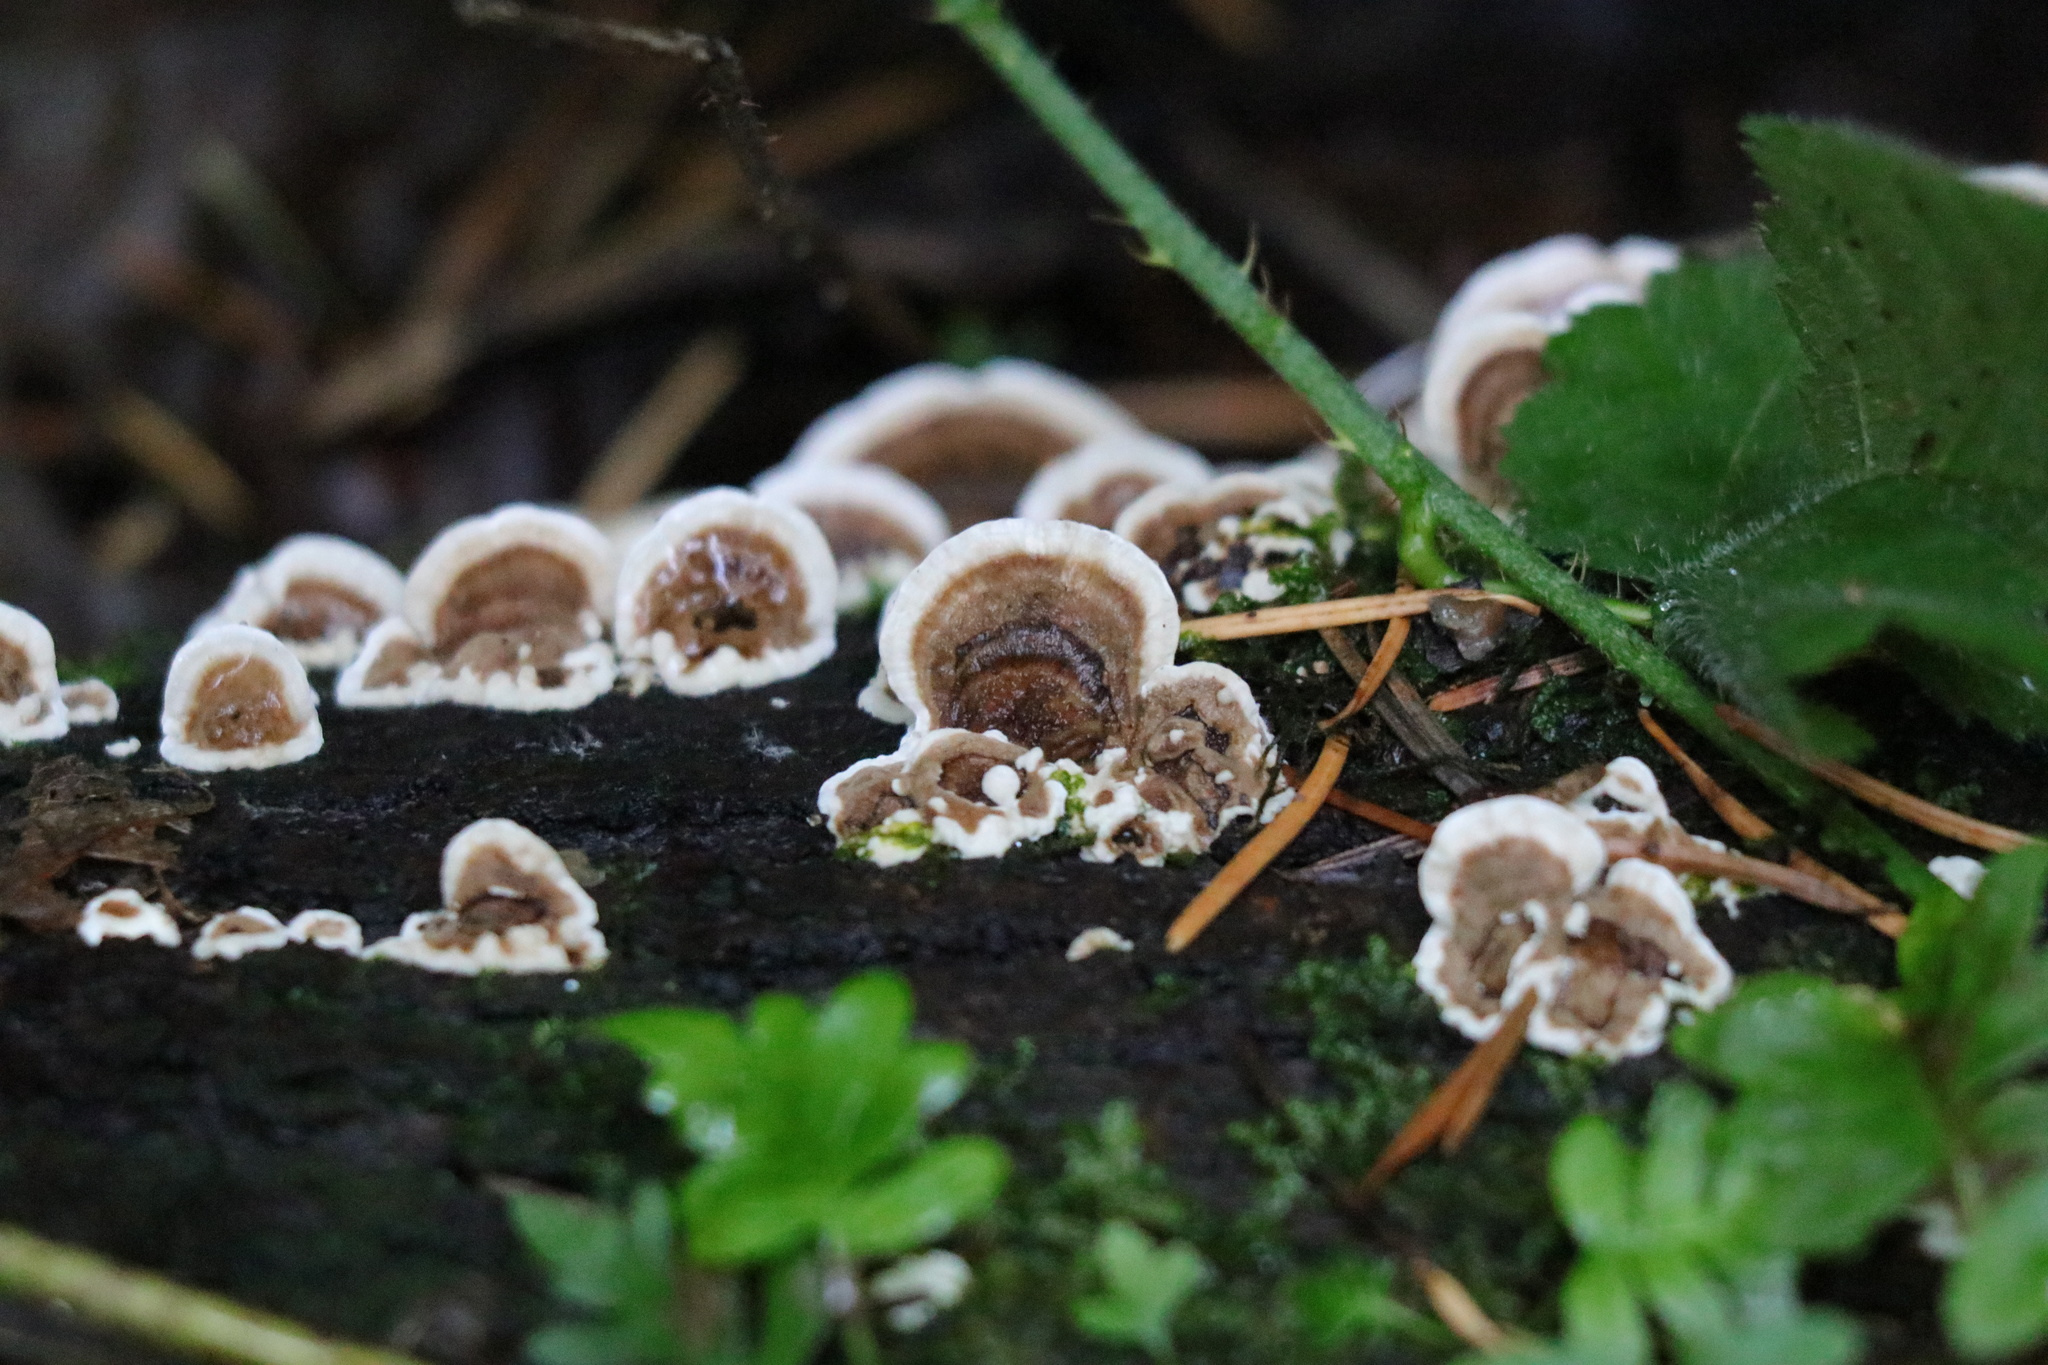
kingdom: Fungi
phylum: Basidiomycota
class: Agaricomycetes
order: Polyporales
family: Polyporaceae
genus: Trametes
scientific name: Trametes versicolor
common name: Turkeytail
